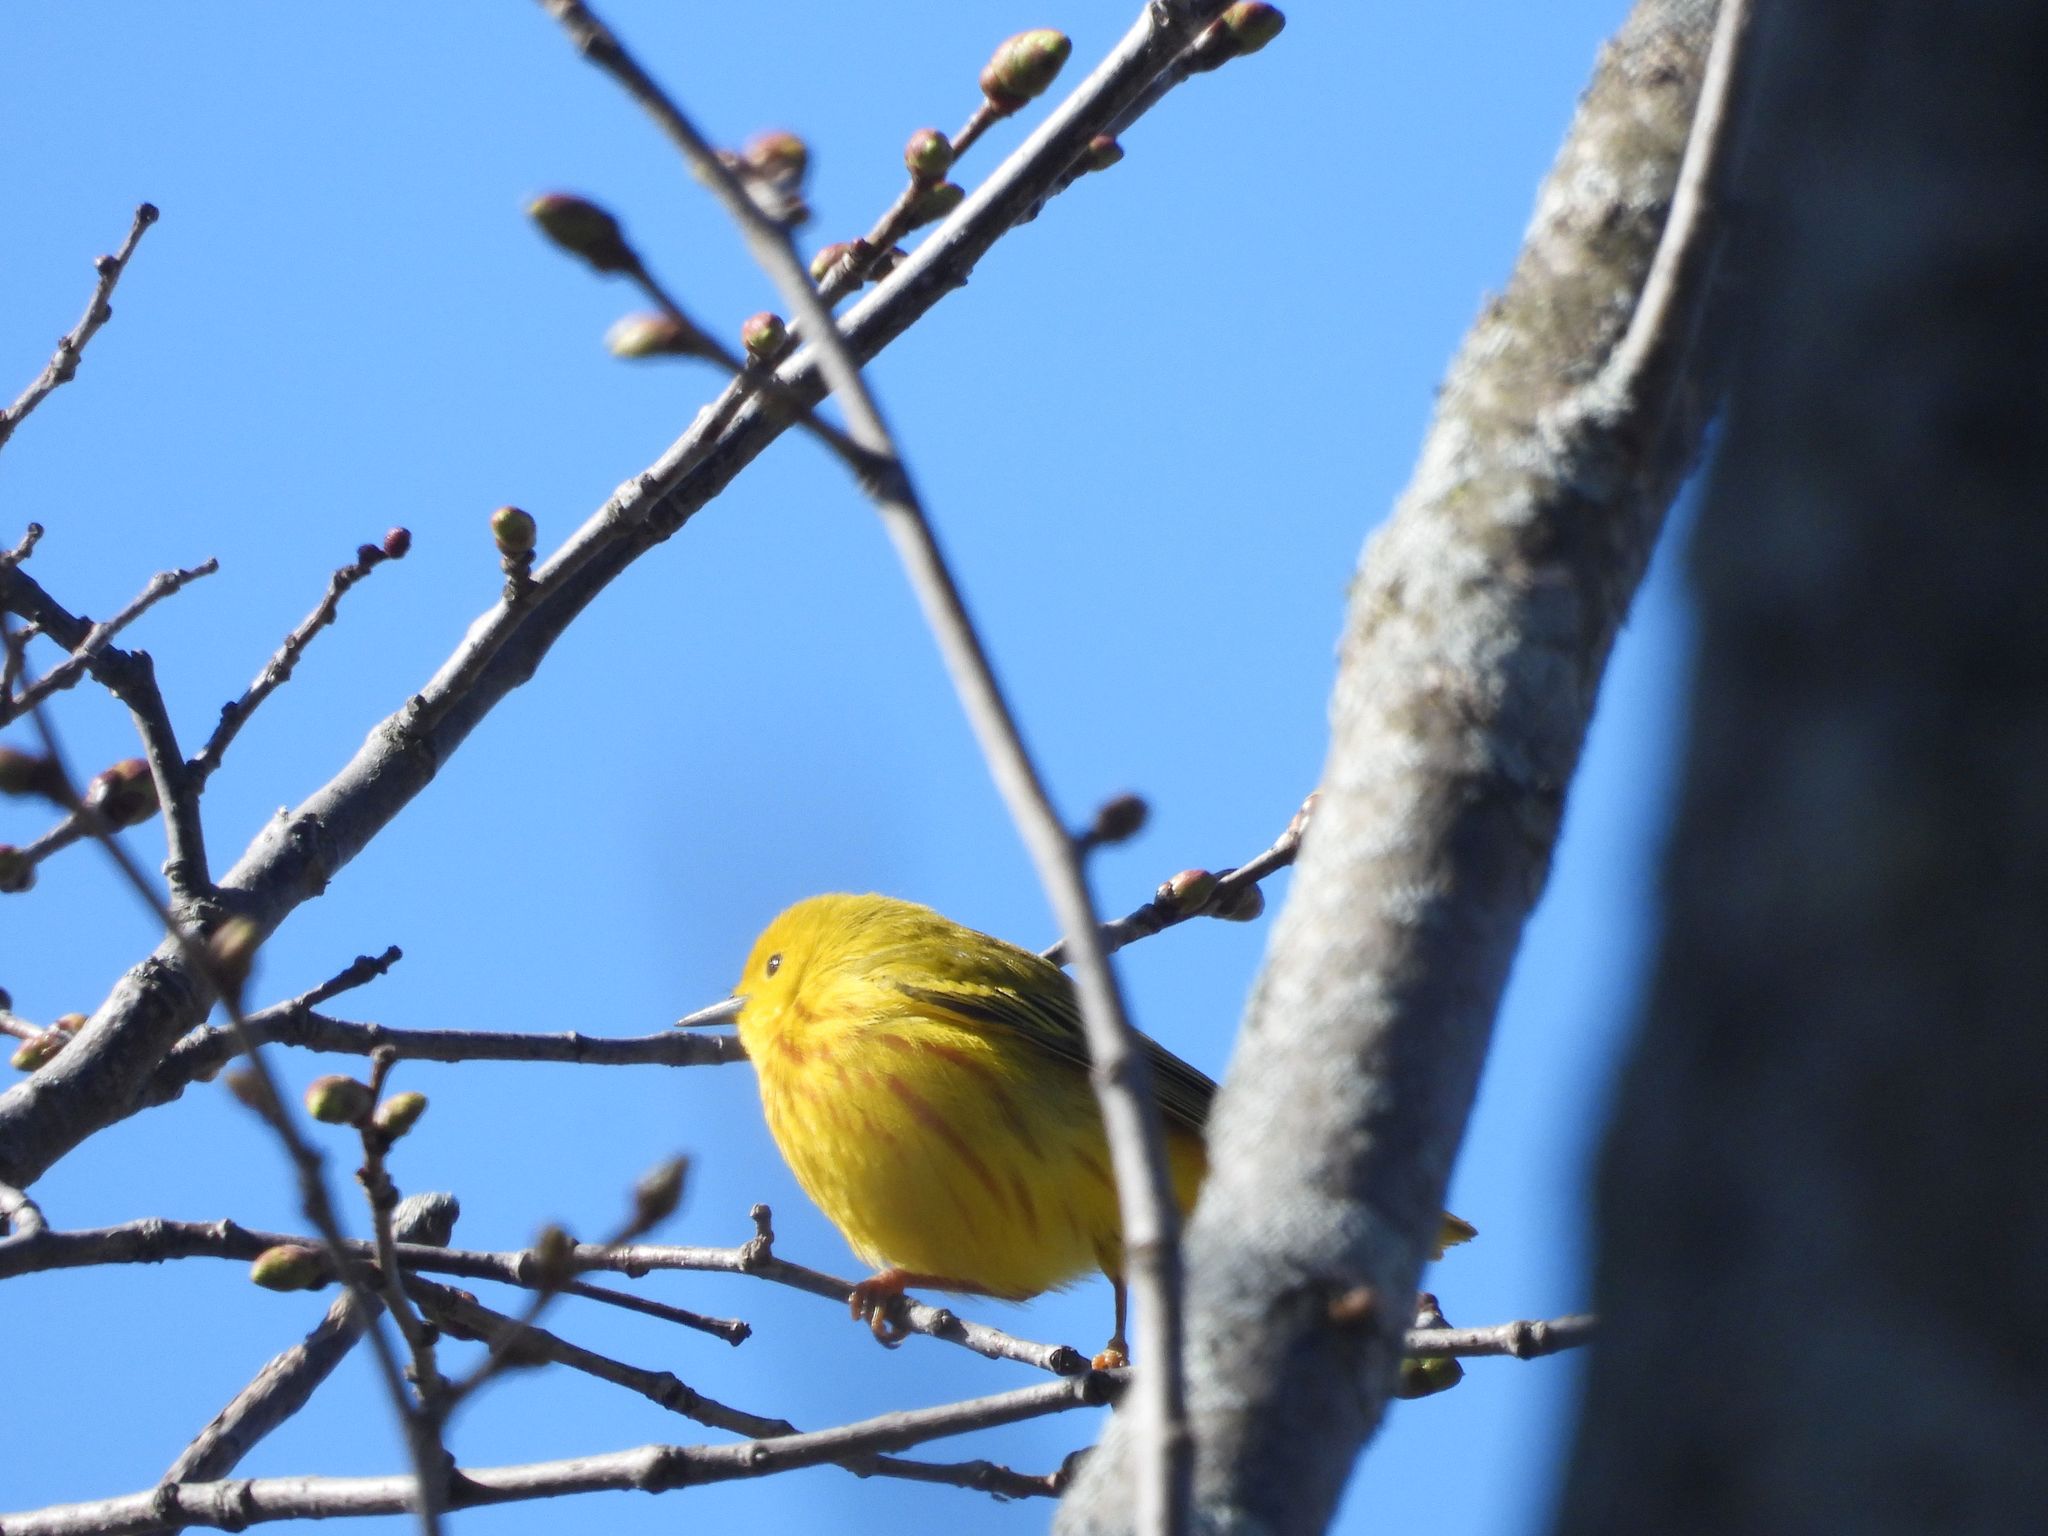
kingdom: Animalia
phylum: Chordata
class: Aves
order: Passeriformes
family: Parulidae
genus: Setophaga
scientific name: Setophaga petechia
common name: Yellow warbler
